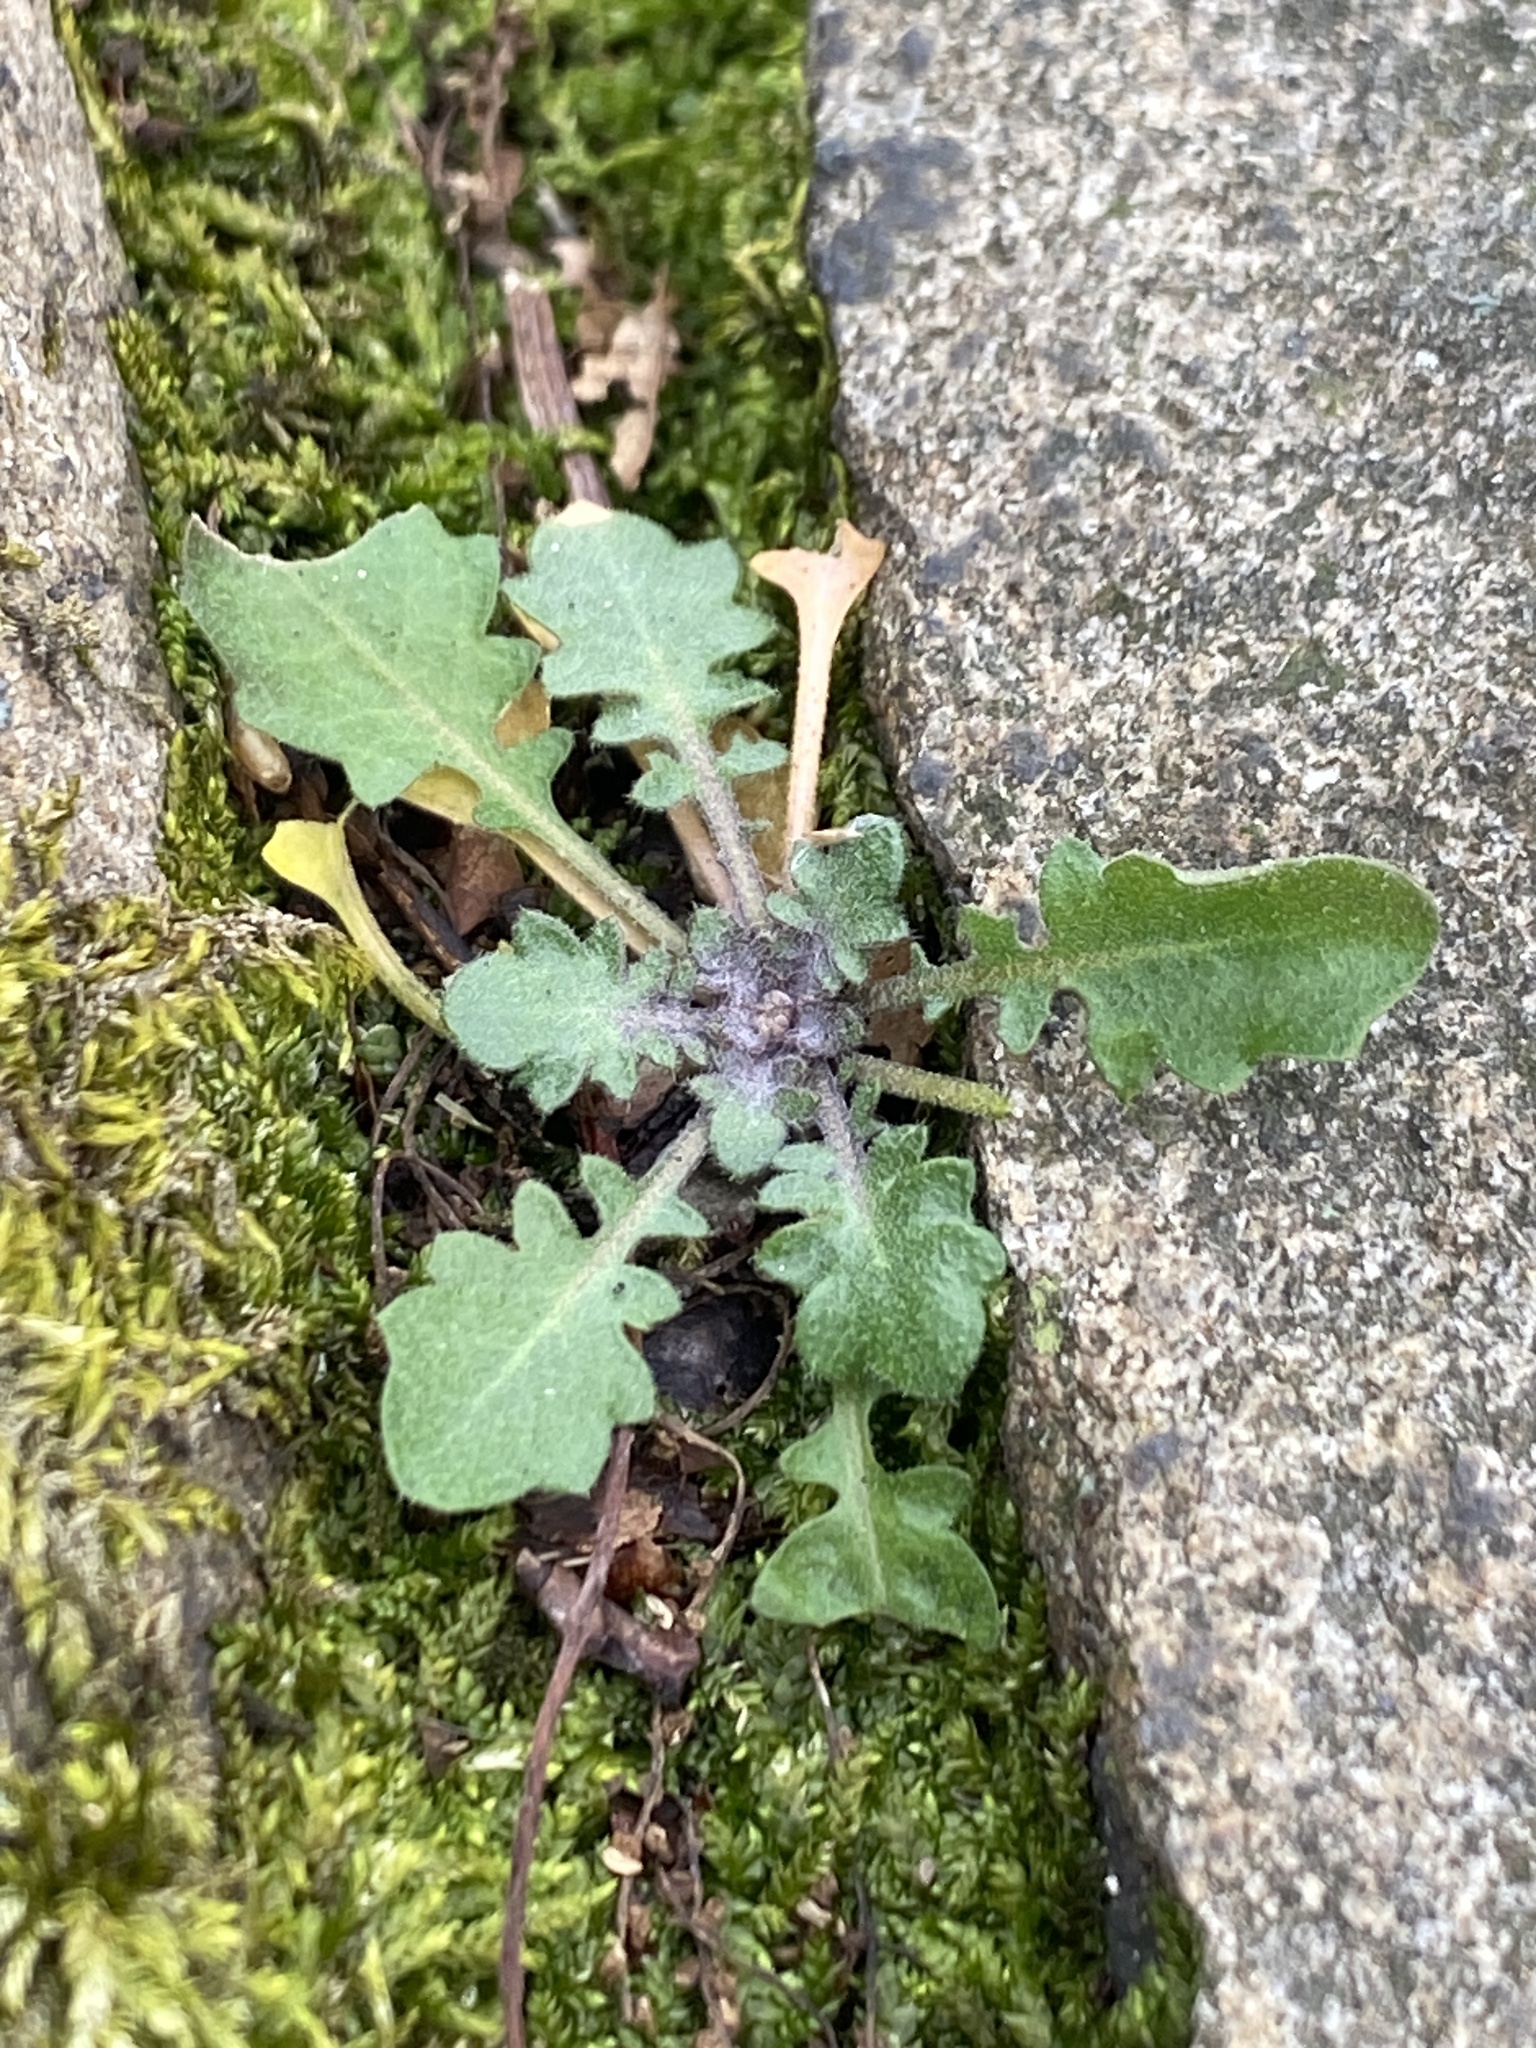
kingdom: Plantae
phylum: Tracheophyta
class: Magnoliopsida
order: Brassicales
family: Brassicaceae
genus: Arabidopsis
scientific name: Arabidopsis lyrata
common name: Lyrate rockcress
